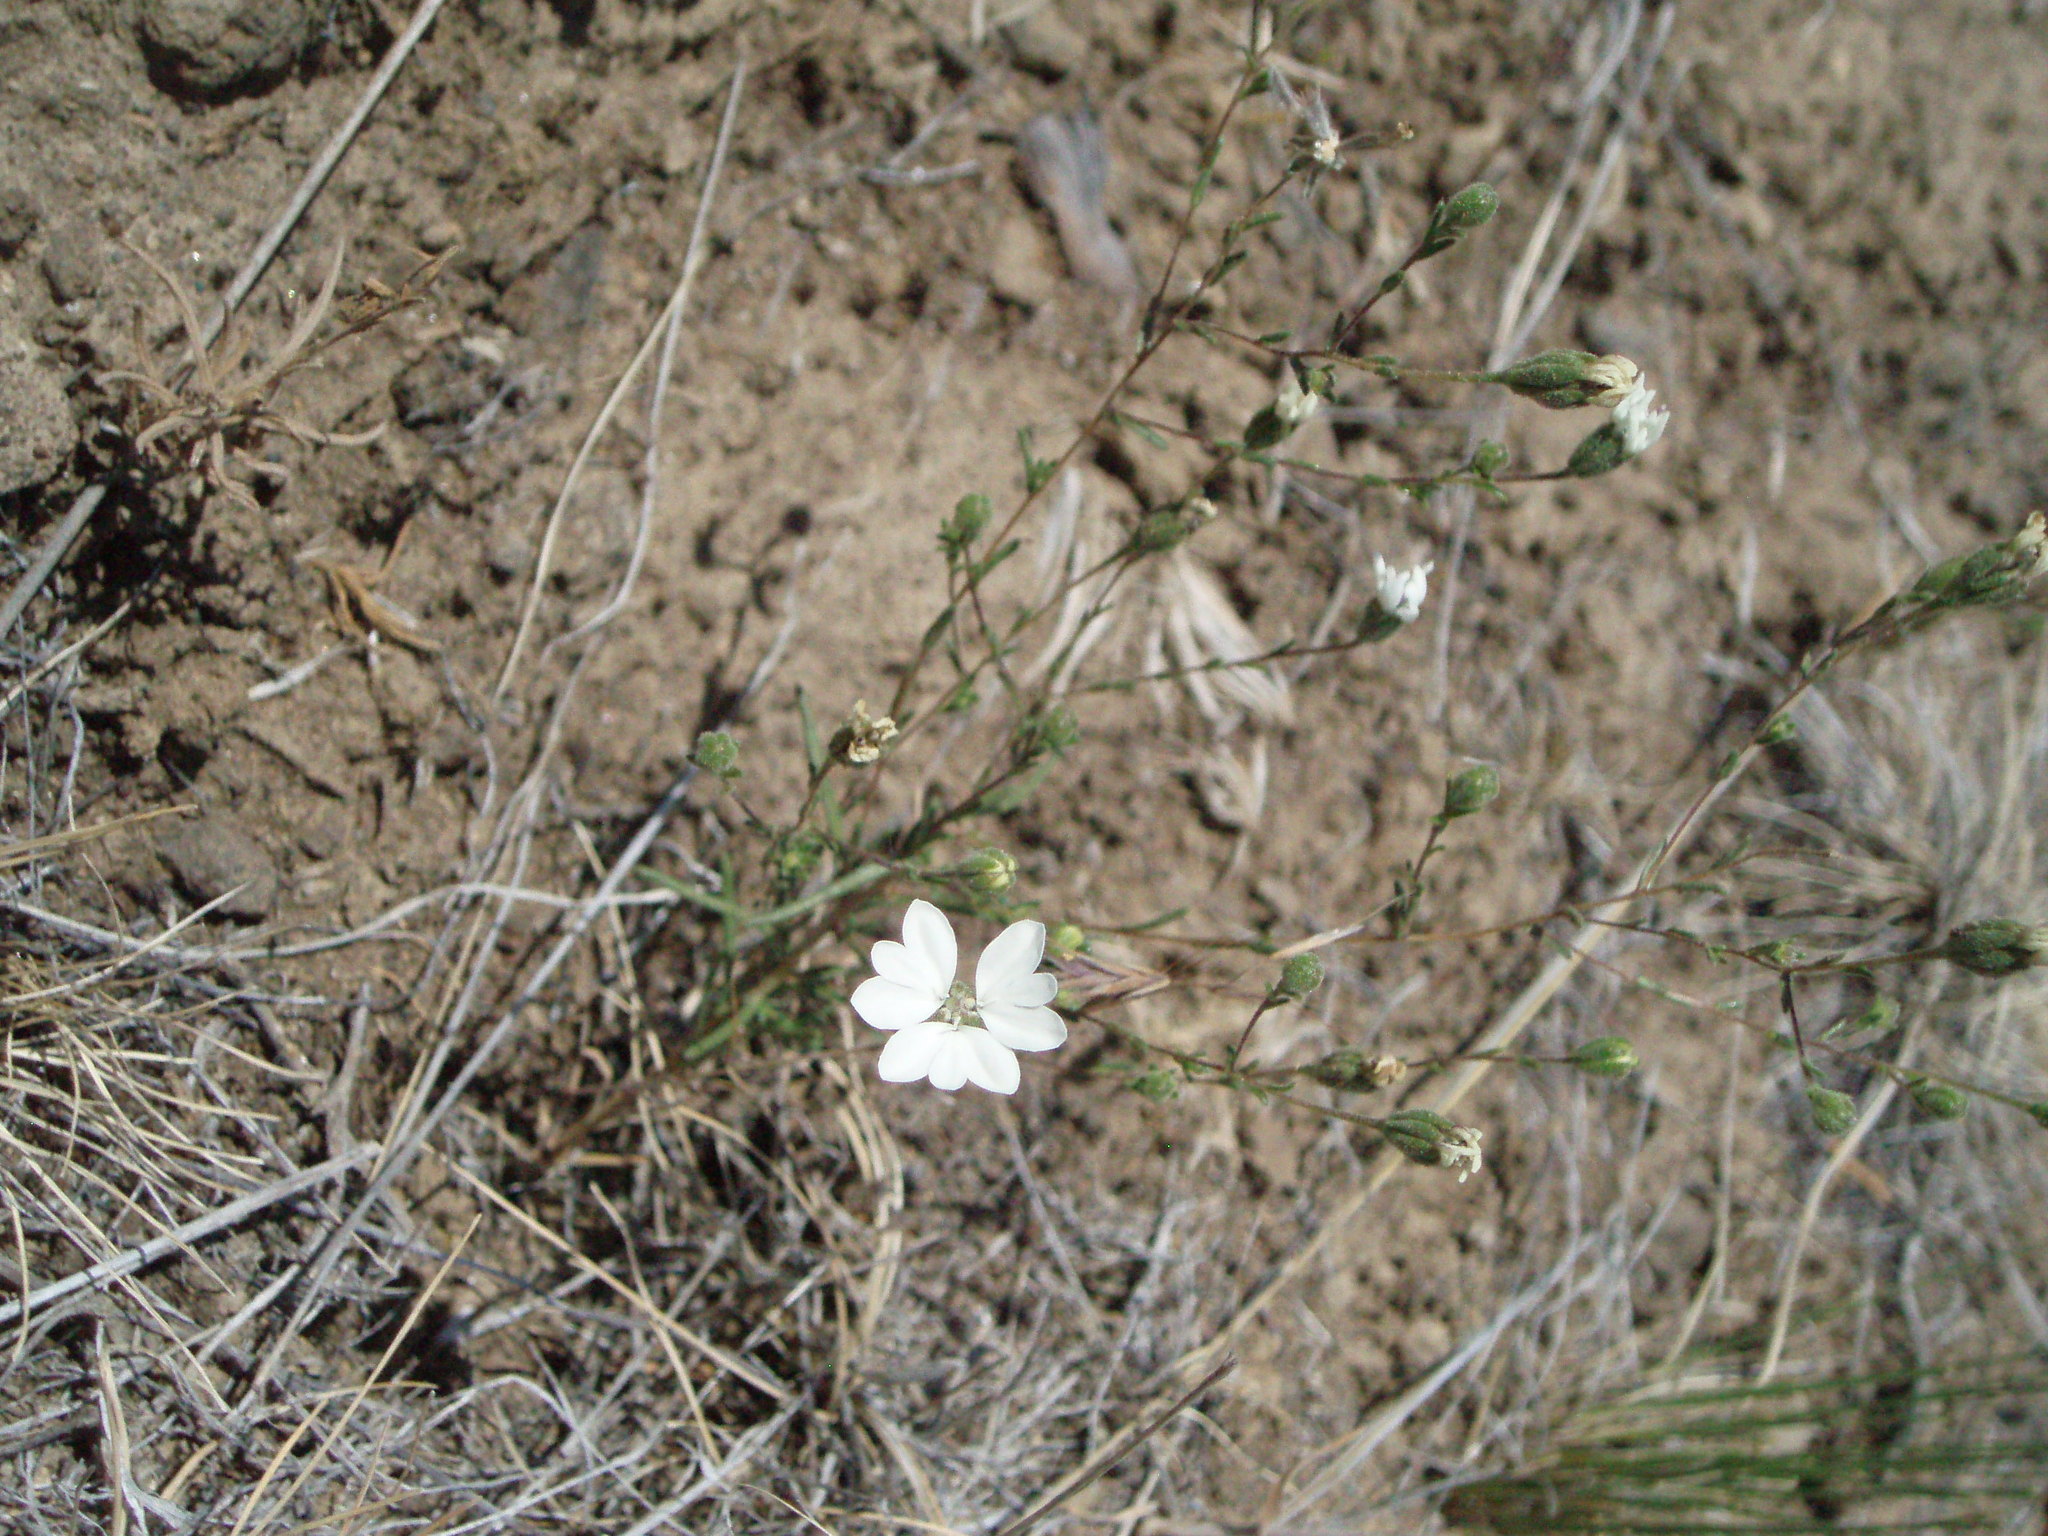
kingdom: Plantae
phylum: Tracheophyta
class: Magnoliopsida
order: Asterales
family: Asteraceae
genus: Blepharipappus
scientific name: Blepharipappus scaber
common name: Rough blepharipappus
